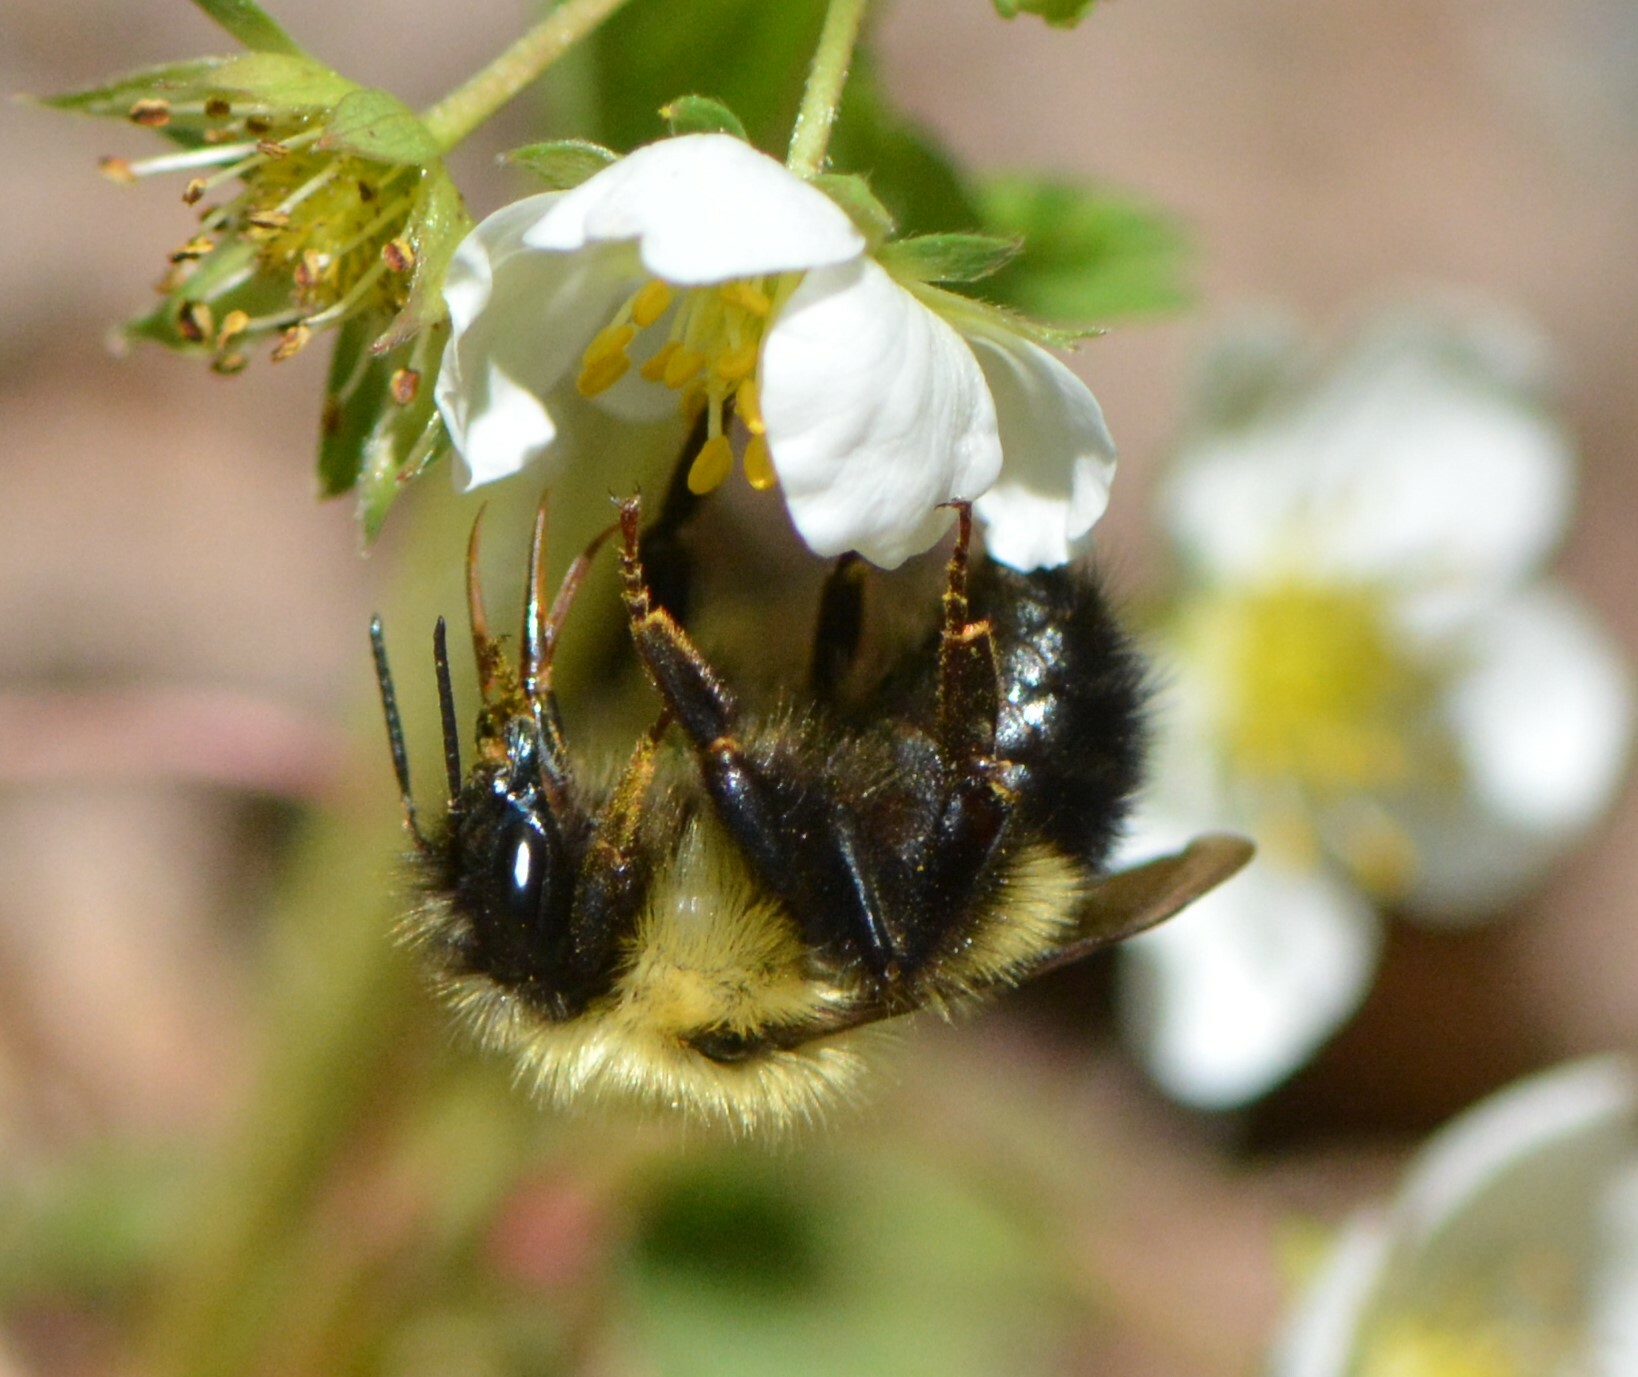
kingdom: Animalia
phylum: Arthropoda
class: Insecta
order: Hymenoptera
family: Apidae
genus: Pyrobombus
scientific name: Pyrobombus
